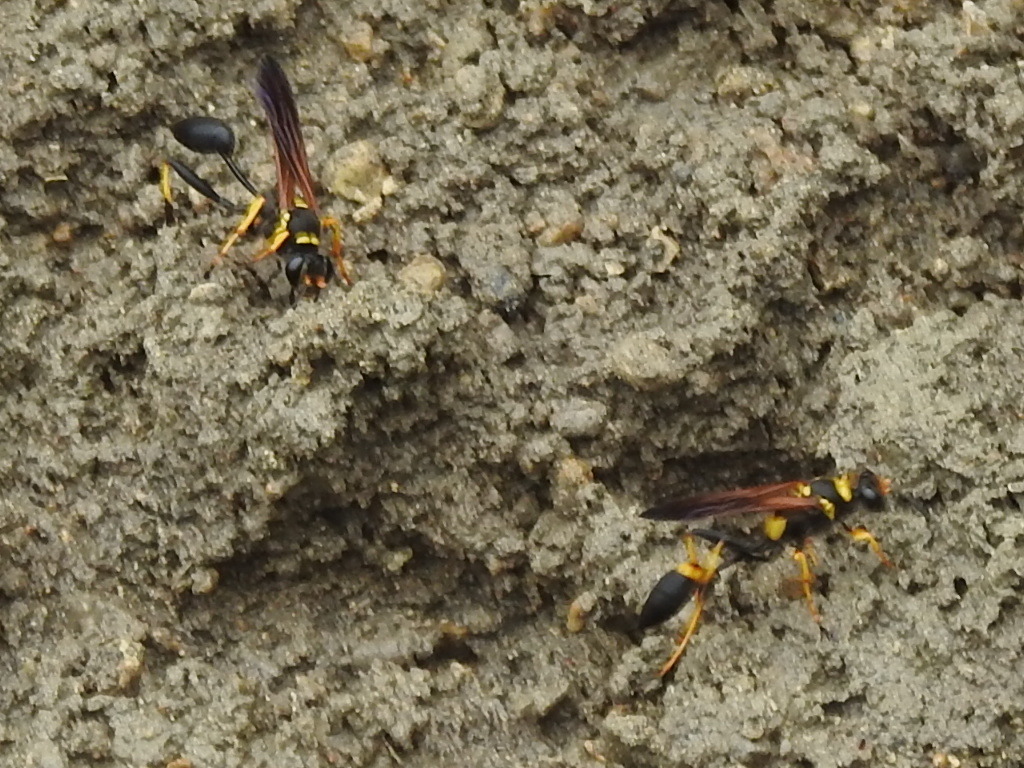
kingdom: Animalia
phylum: Arthropoda
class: Insecta
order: Hymenoptera
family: Sphecidae
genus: Sceliphron
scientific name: Sceliphron caementarium
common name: Mud dauber
